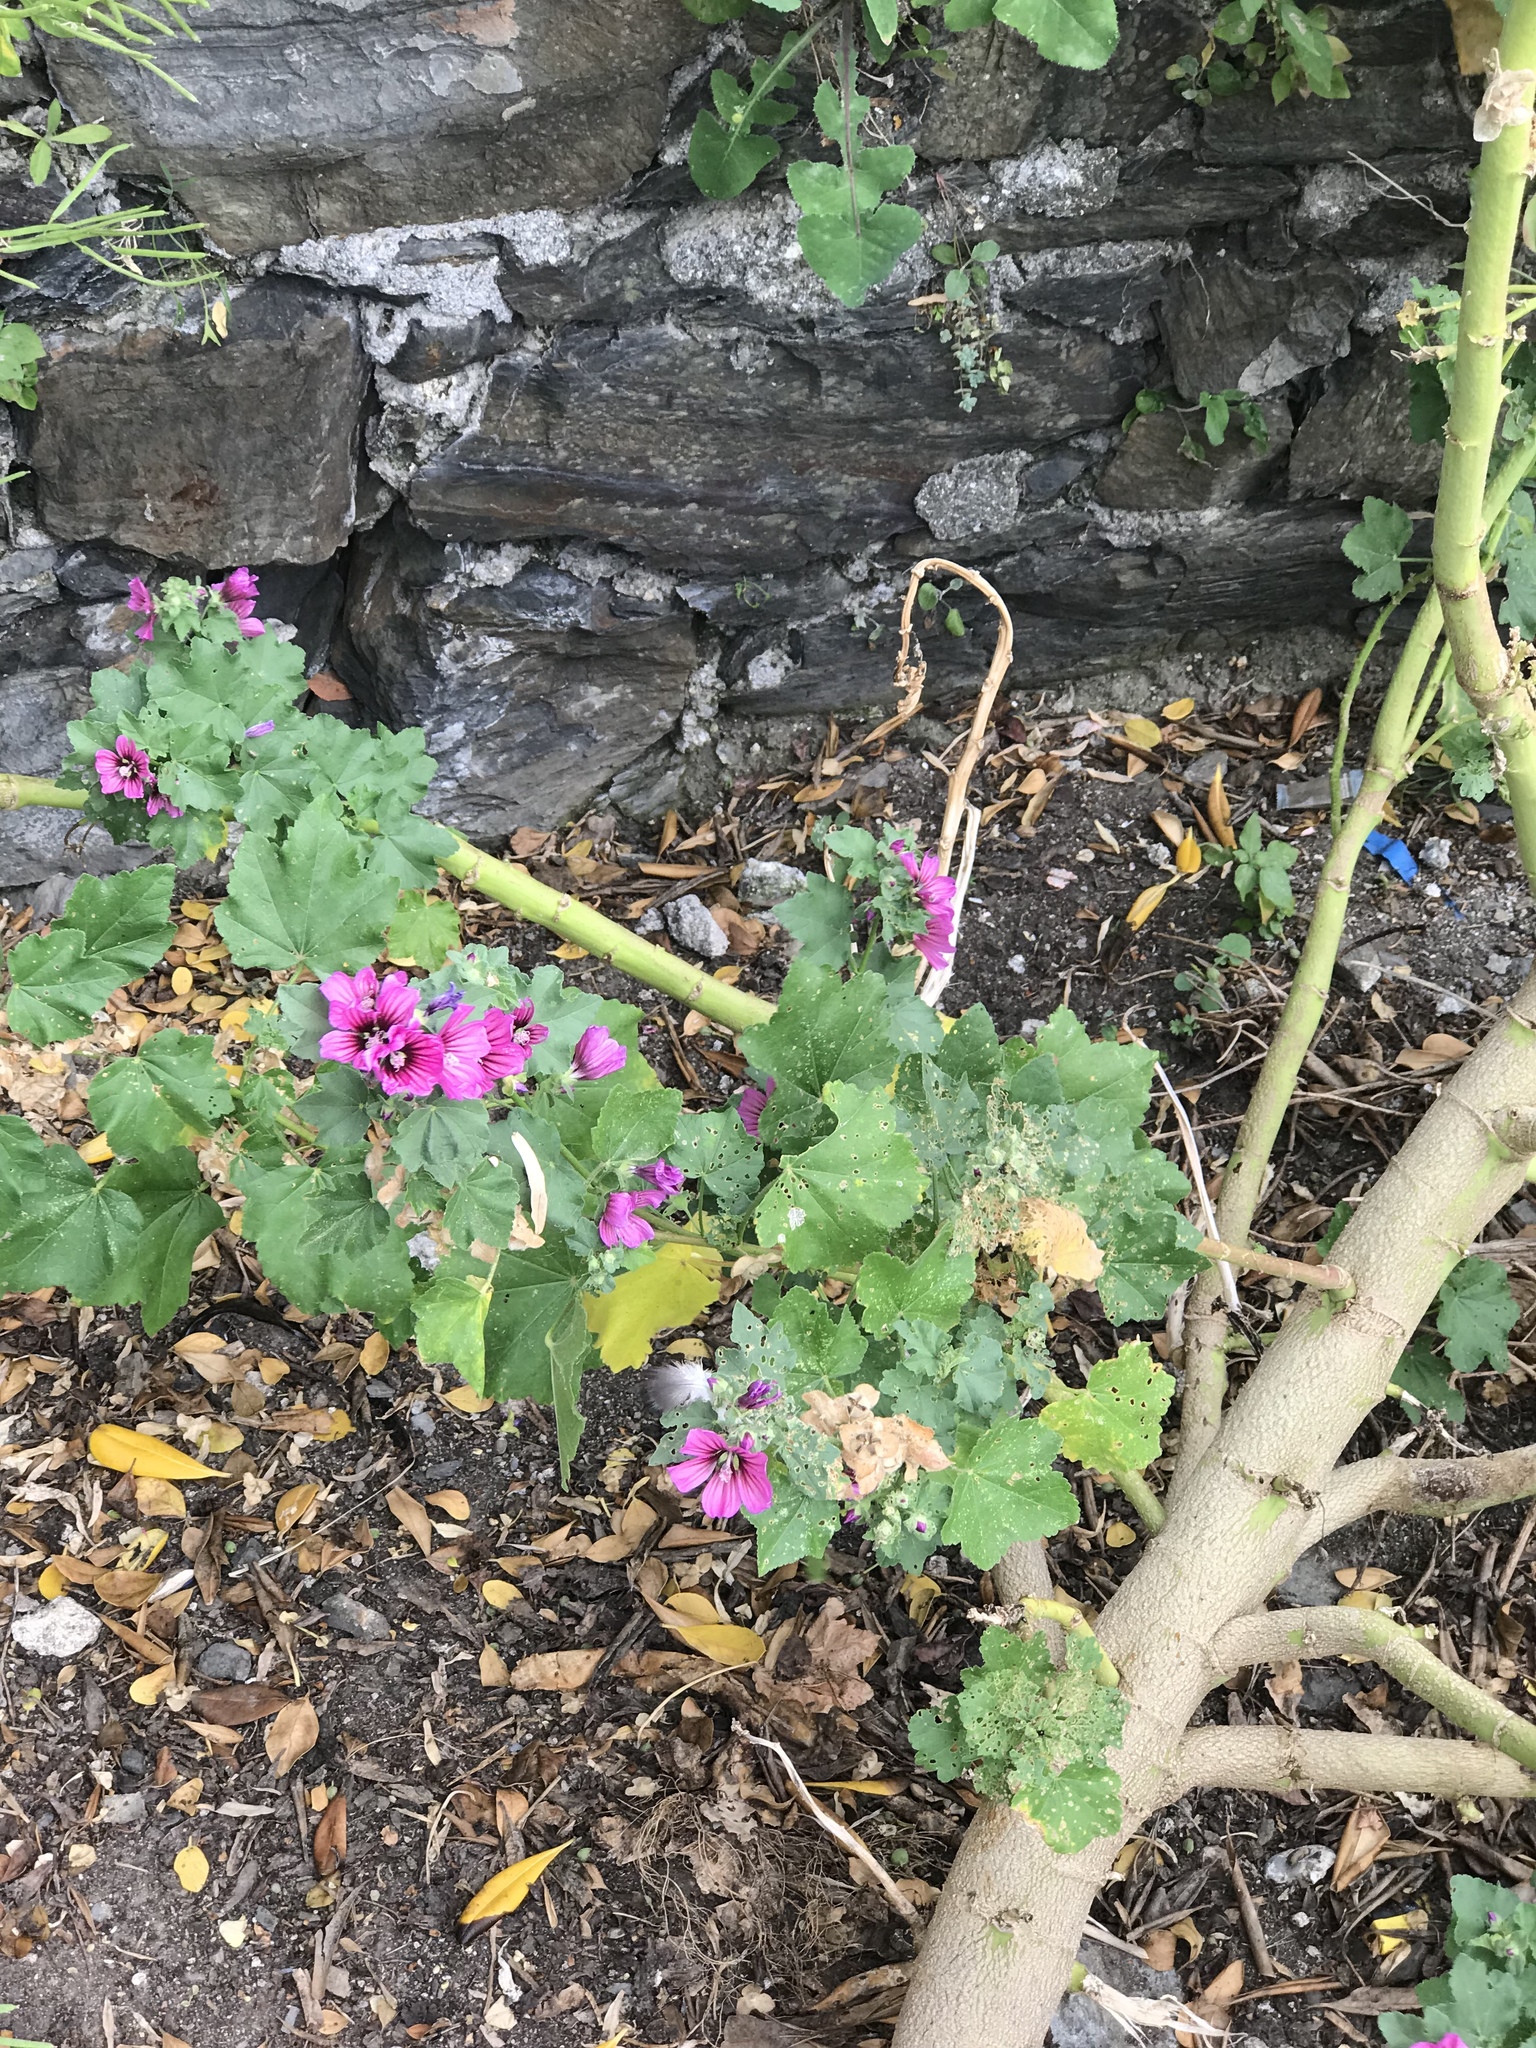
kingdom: Plantae
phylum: Tracheophyta
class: Magnoliopsida
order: Malvales
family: Malvaceae
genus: Malva
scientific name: Malva arborea
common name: Tree mallow
